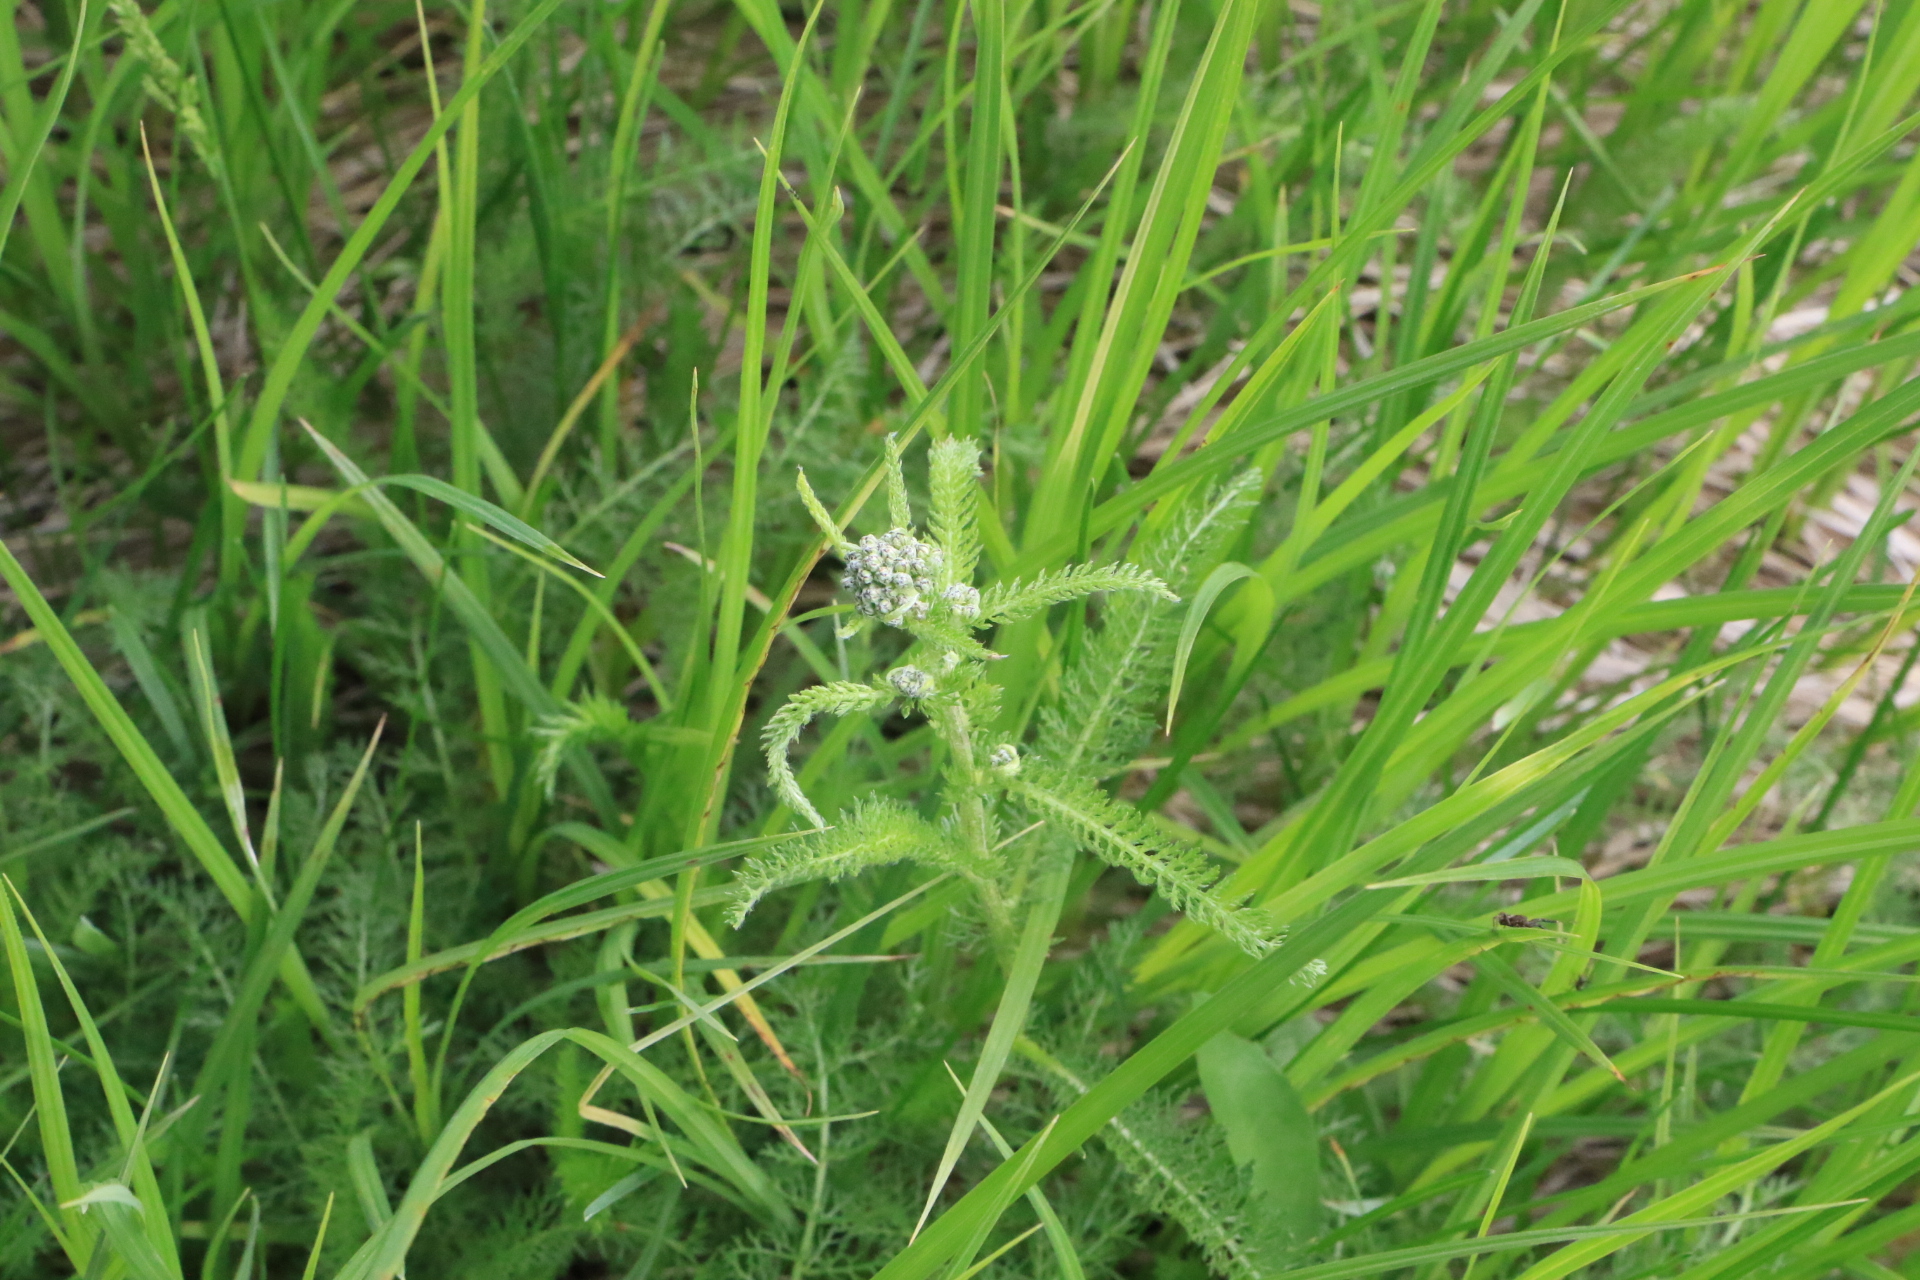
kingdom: Plantae
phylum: Tracheophyta
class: Magnoliopsida
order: Asterales
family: Asteraceae
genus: Achillea
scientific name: Achillea millefolium
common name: Yarrow
